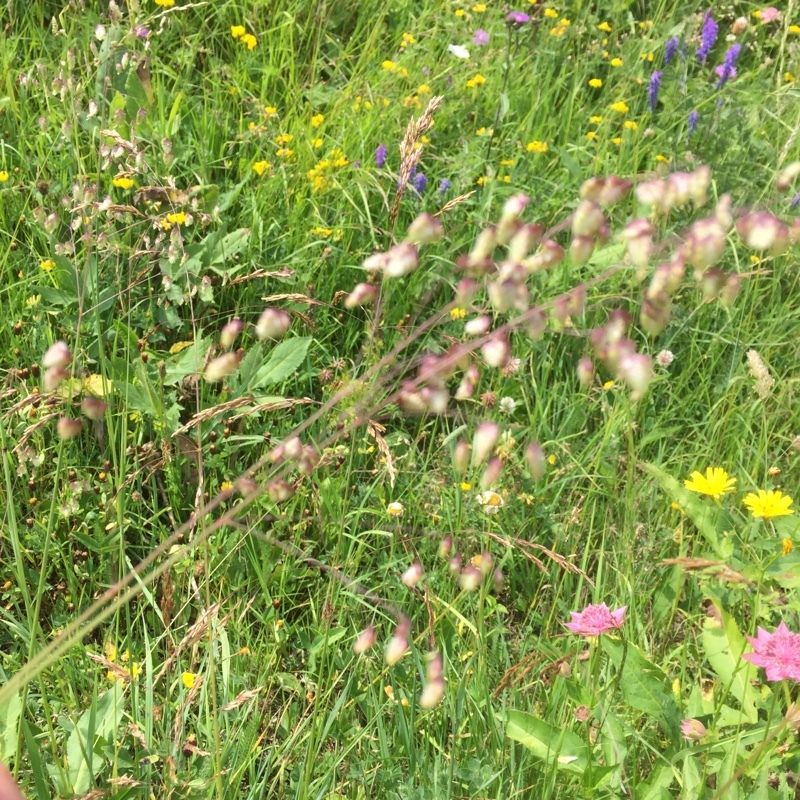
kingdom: Plantae
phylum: Tracheophyta
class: Liliopsida
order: Poales
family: Poaceae
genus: Briza
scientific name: Briza media
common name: Quaking grass
